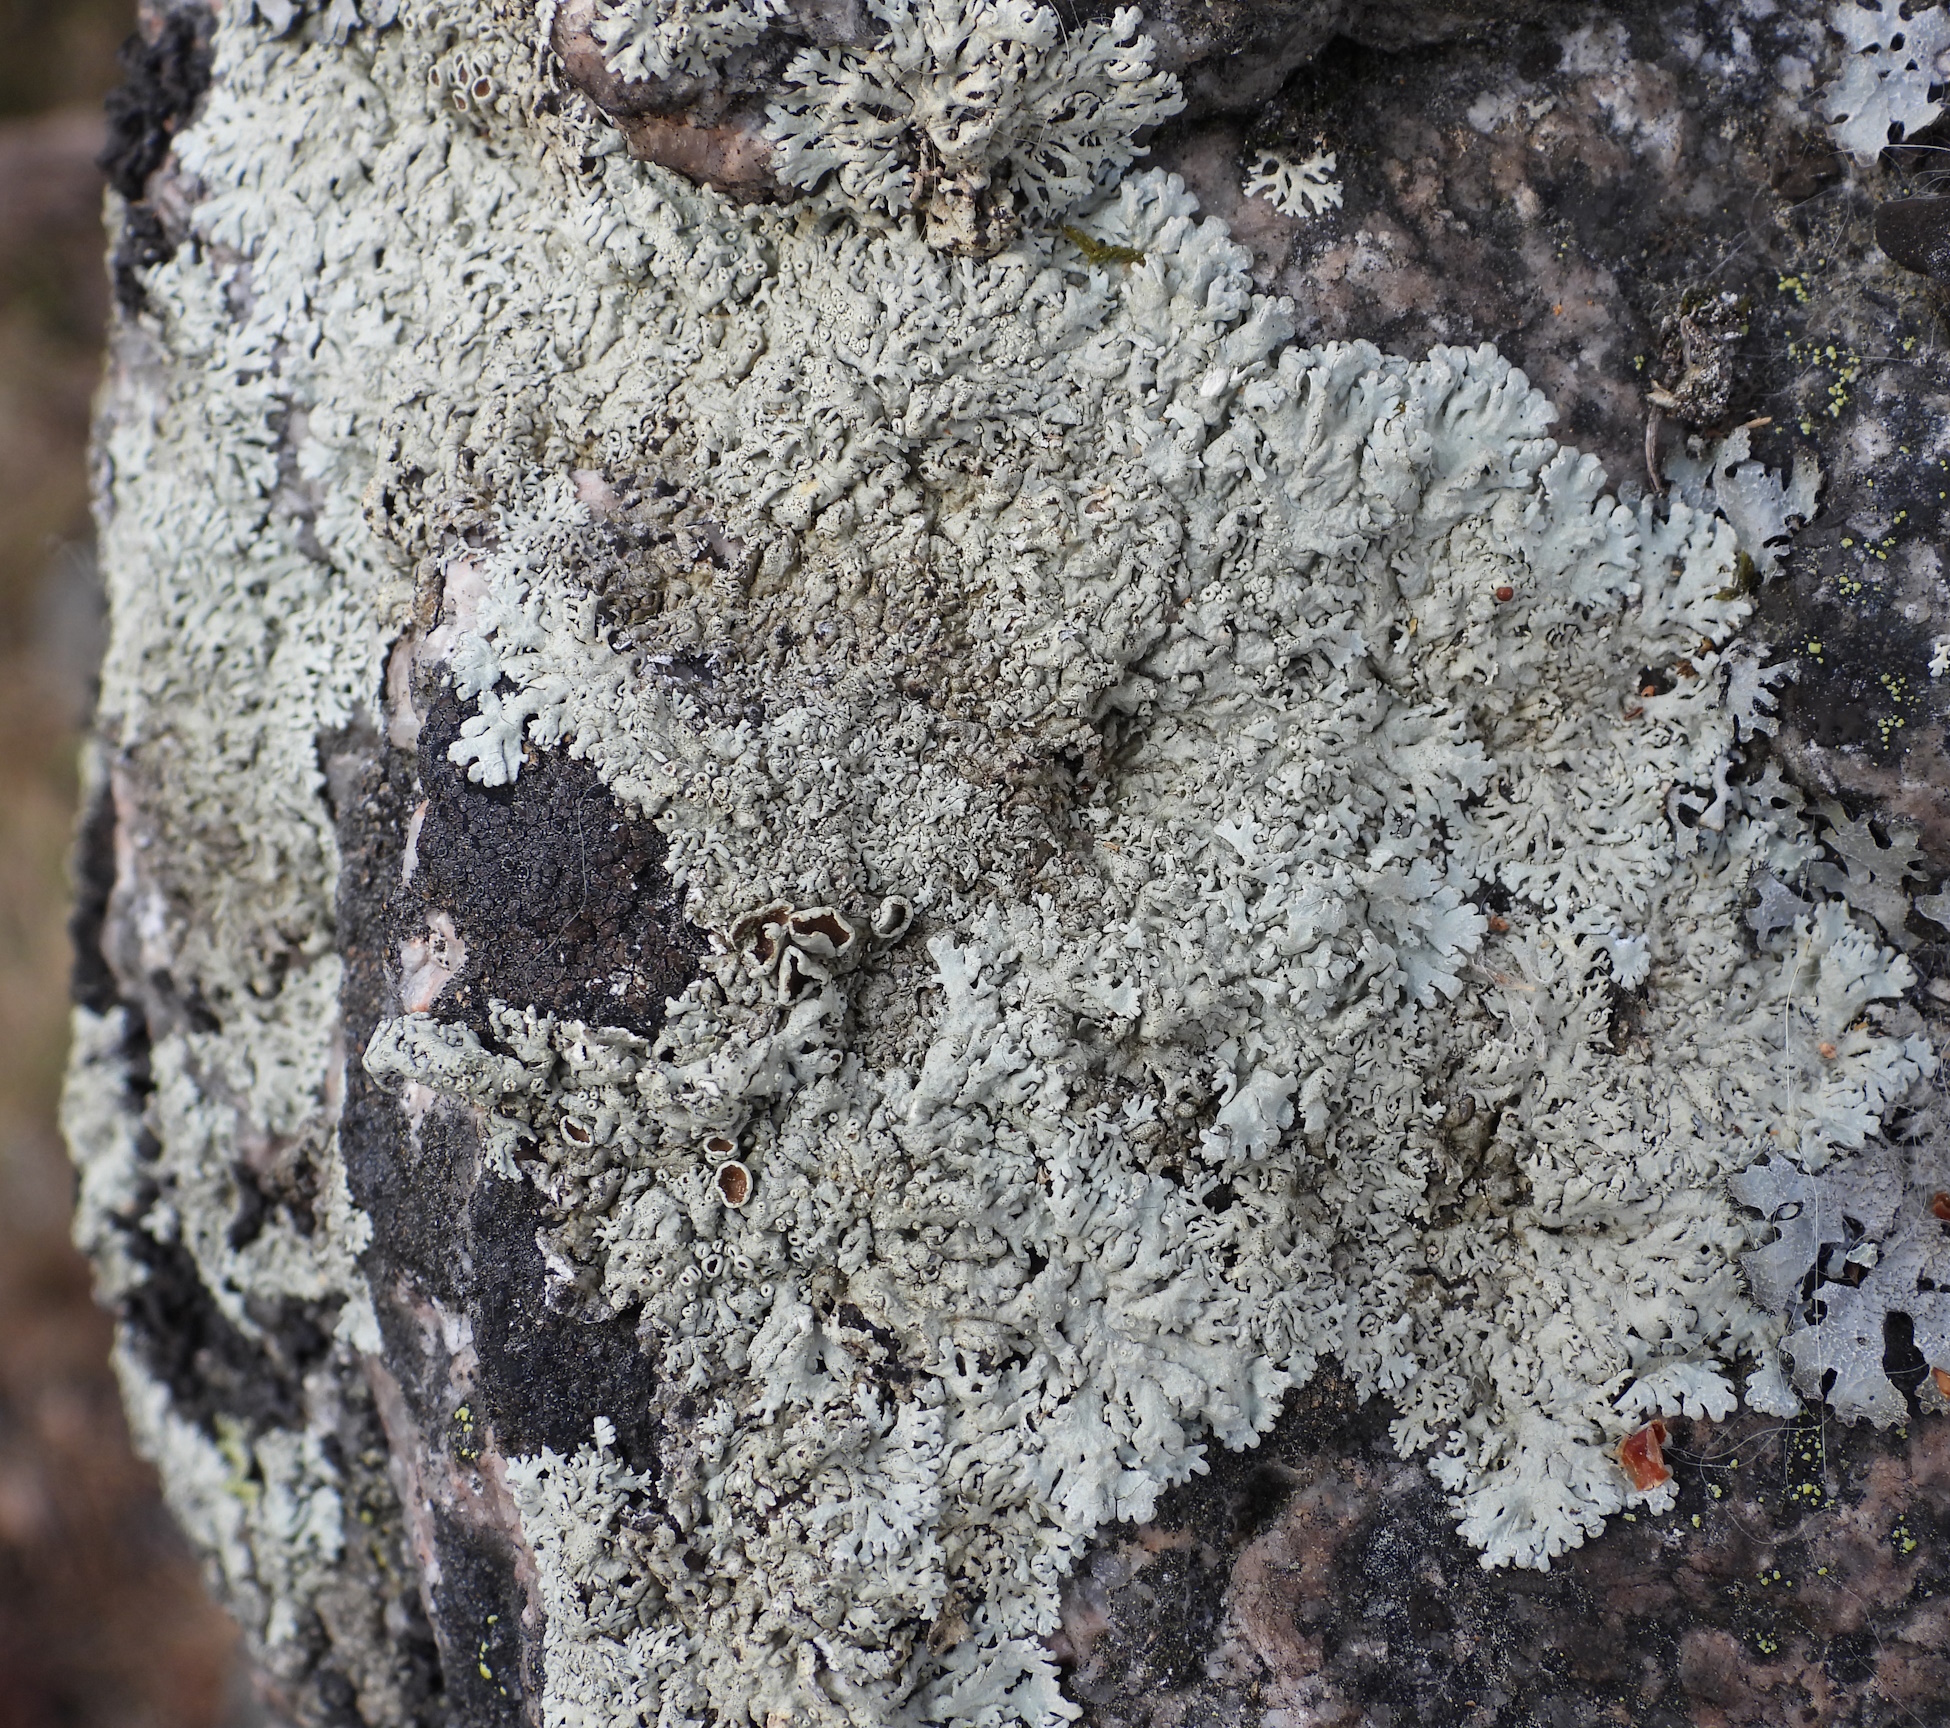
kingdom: Fungi
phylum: Ascomycota
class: Lecanoromycetes
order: Lecanorales
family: Parmeliaceae
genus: Arctoparmelia
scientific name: Arctoparmelia centrifuga
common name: Concentric ring lichen
